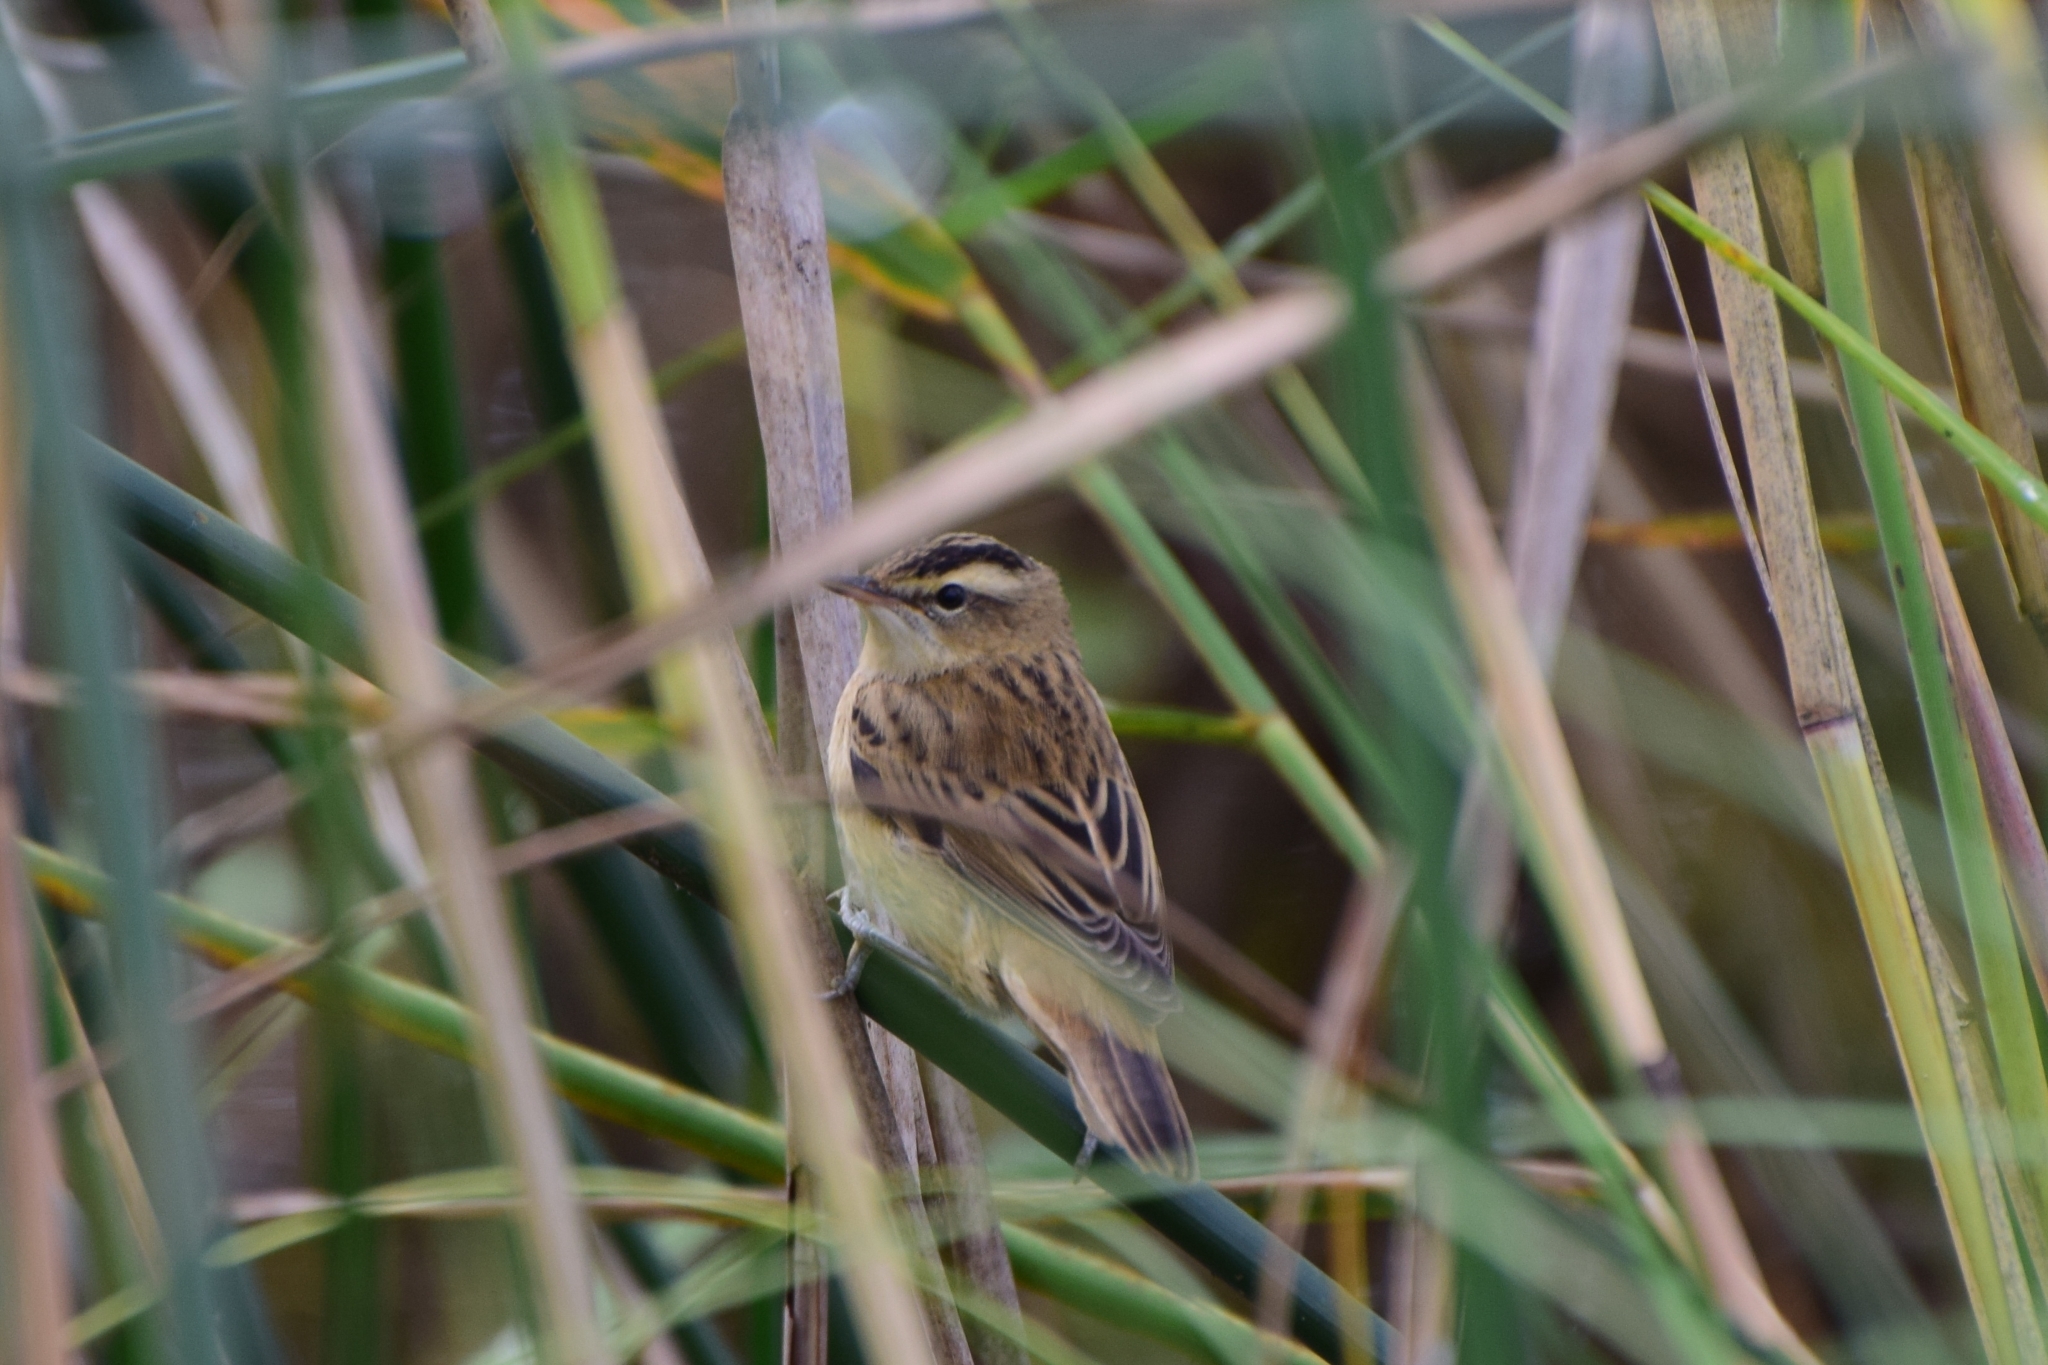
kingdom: Animalia
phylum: Chordata
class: Aves
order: Passeriformes
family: Acrocephalidae
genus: Acrocephalus
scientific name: Acrocephalus schoenobaenus
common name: Sedge warbler
